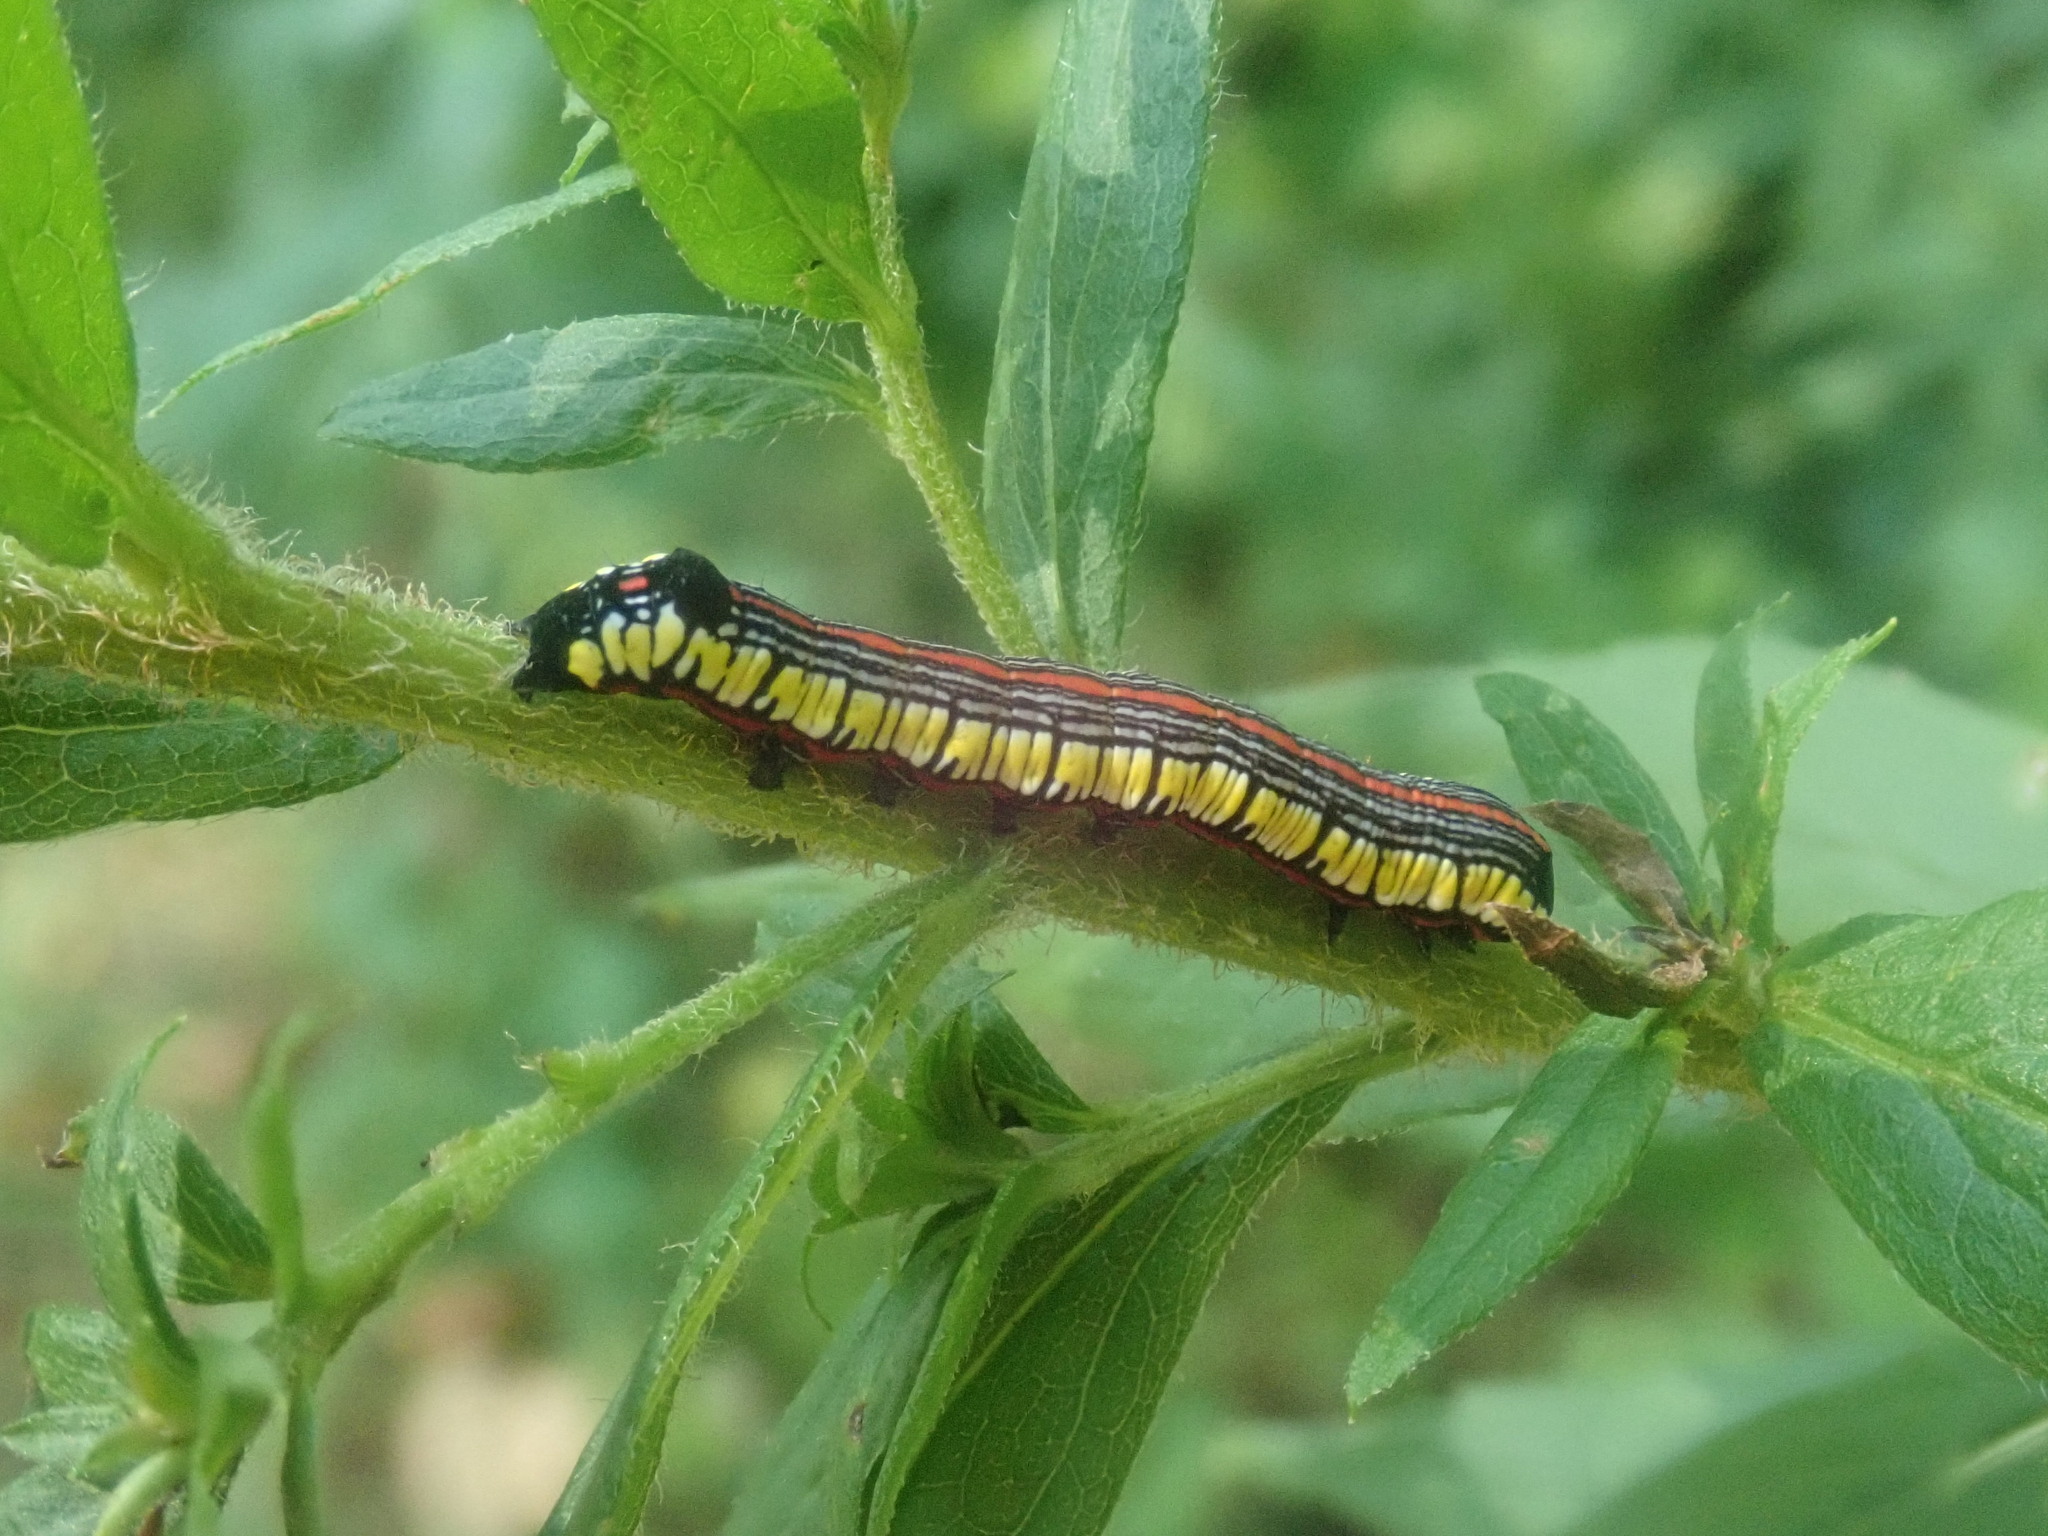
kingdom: Animalia
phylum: Arthropoda
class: Insecta
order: Lepidoptera
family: Noctuidae
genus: Cucullia
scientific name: Cucullia convexipennis
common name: Brown-hooded owlet
